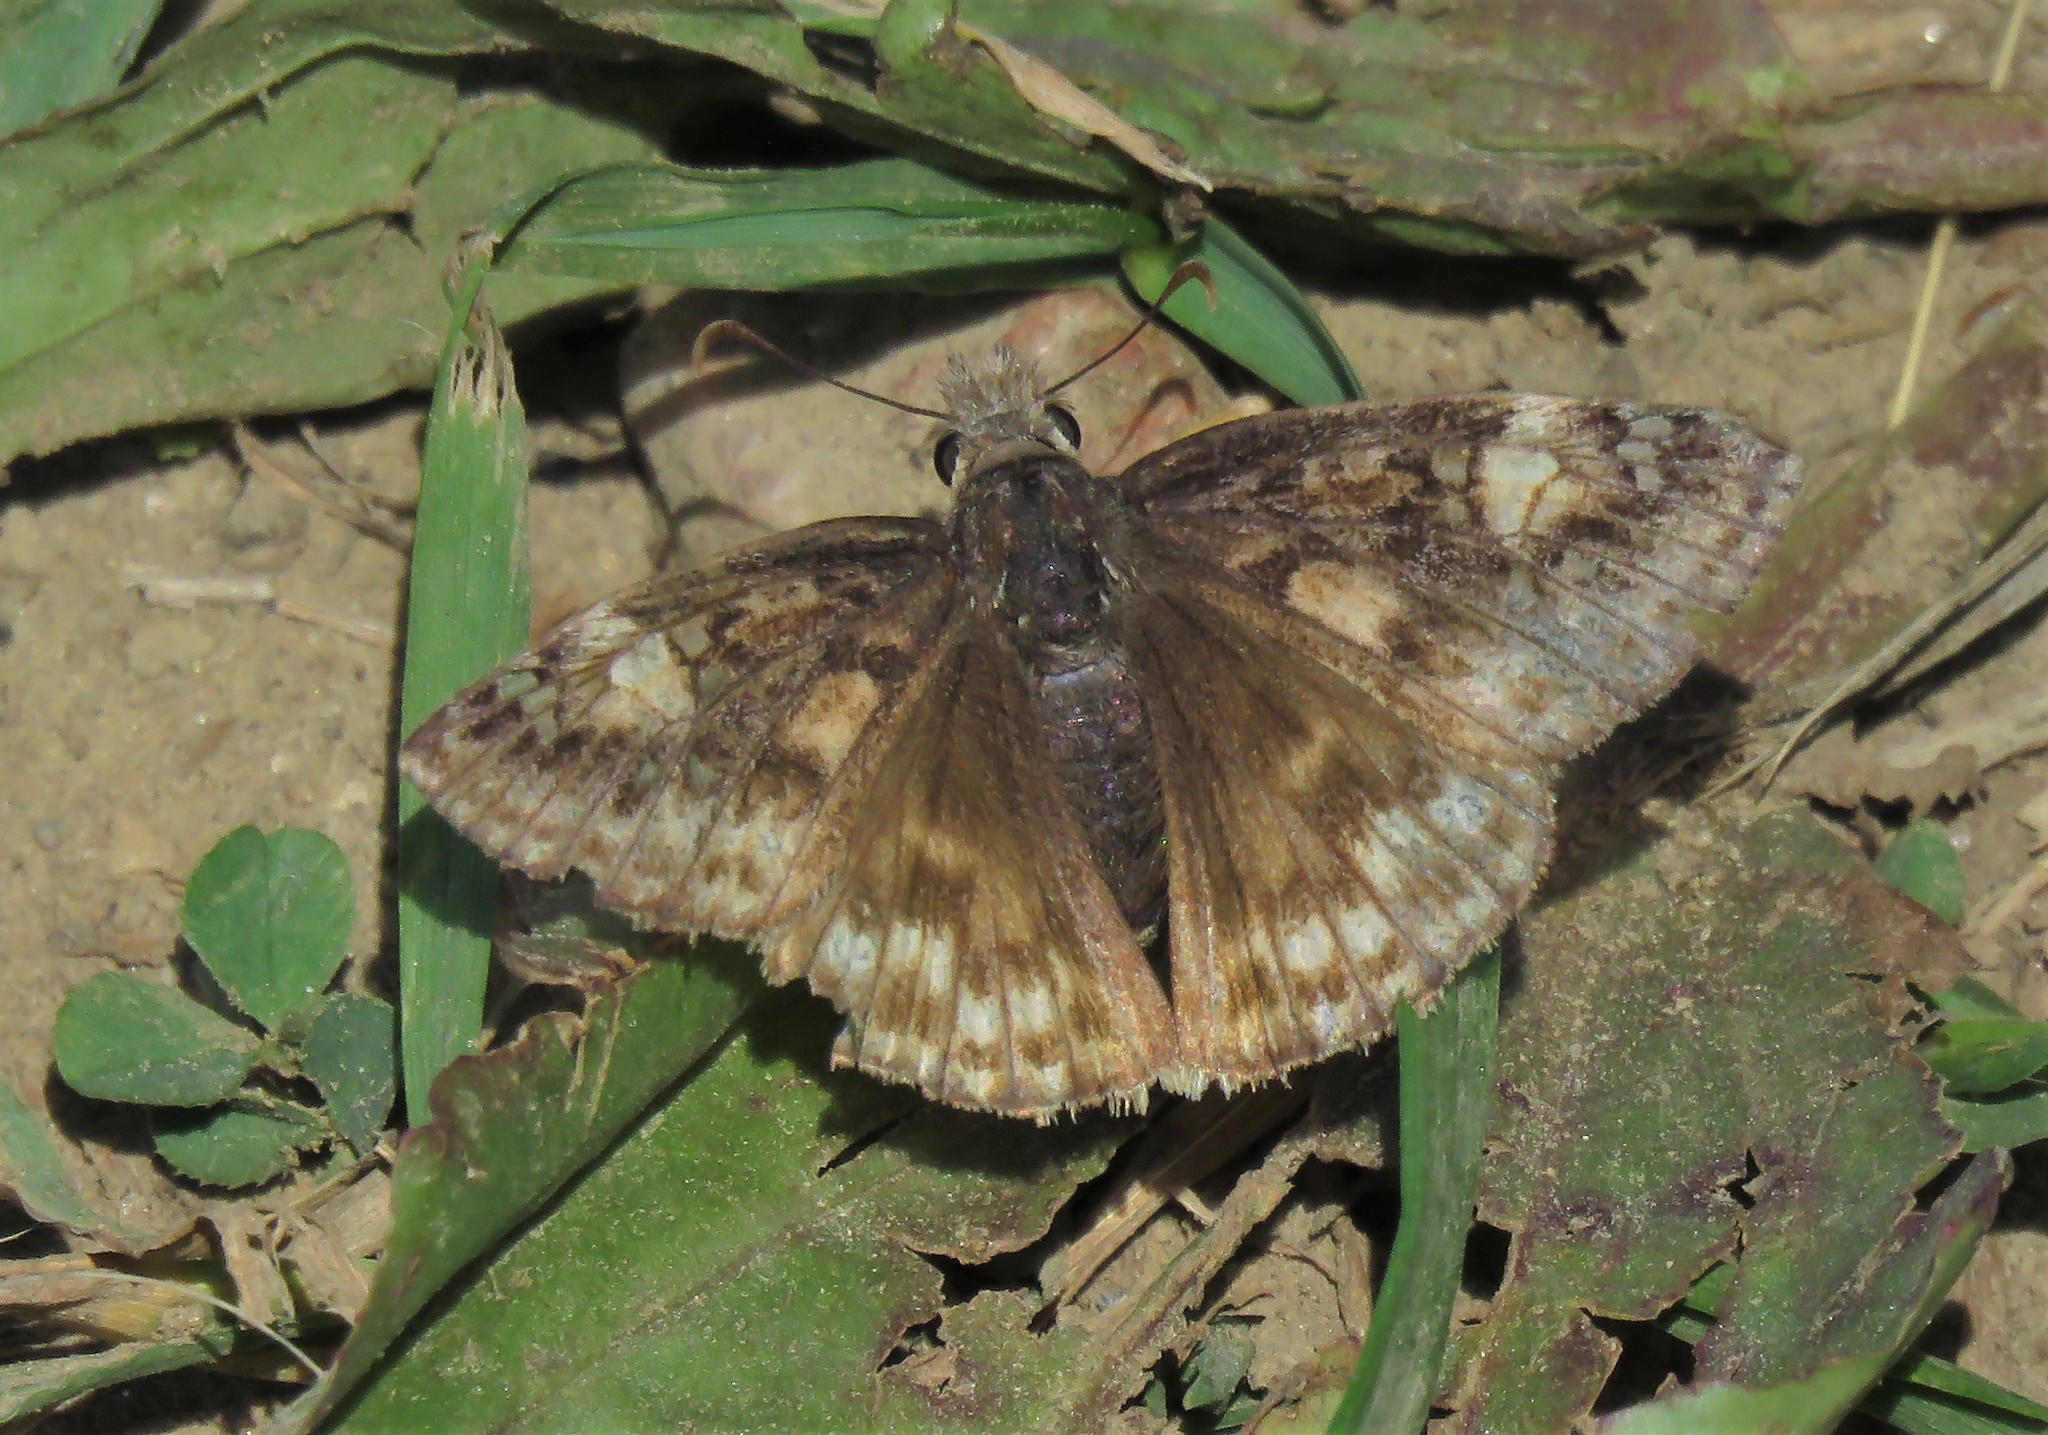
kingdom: Animalia
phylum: Arthropoda
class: Insecta
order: Lepidoptera
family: Hesperiidae
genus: Erynnis
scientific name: Erynnis juvenalis
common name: Juvenal's duskywing
